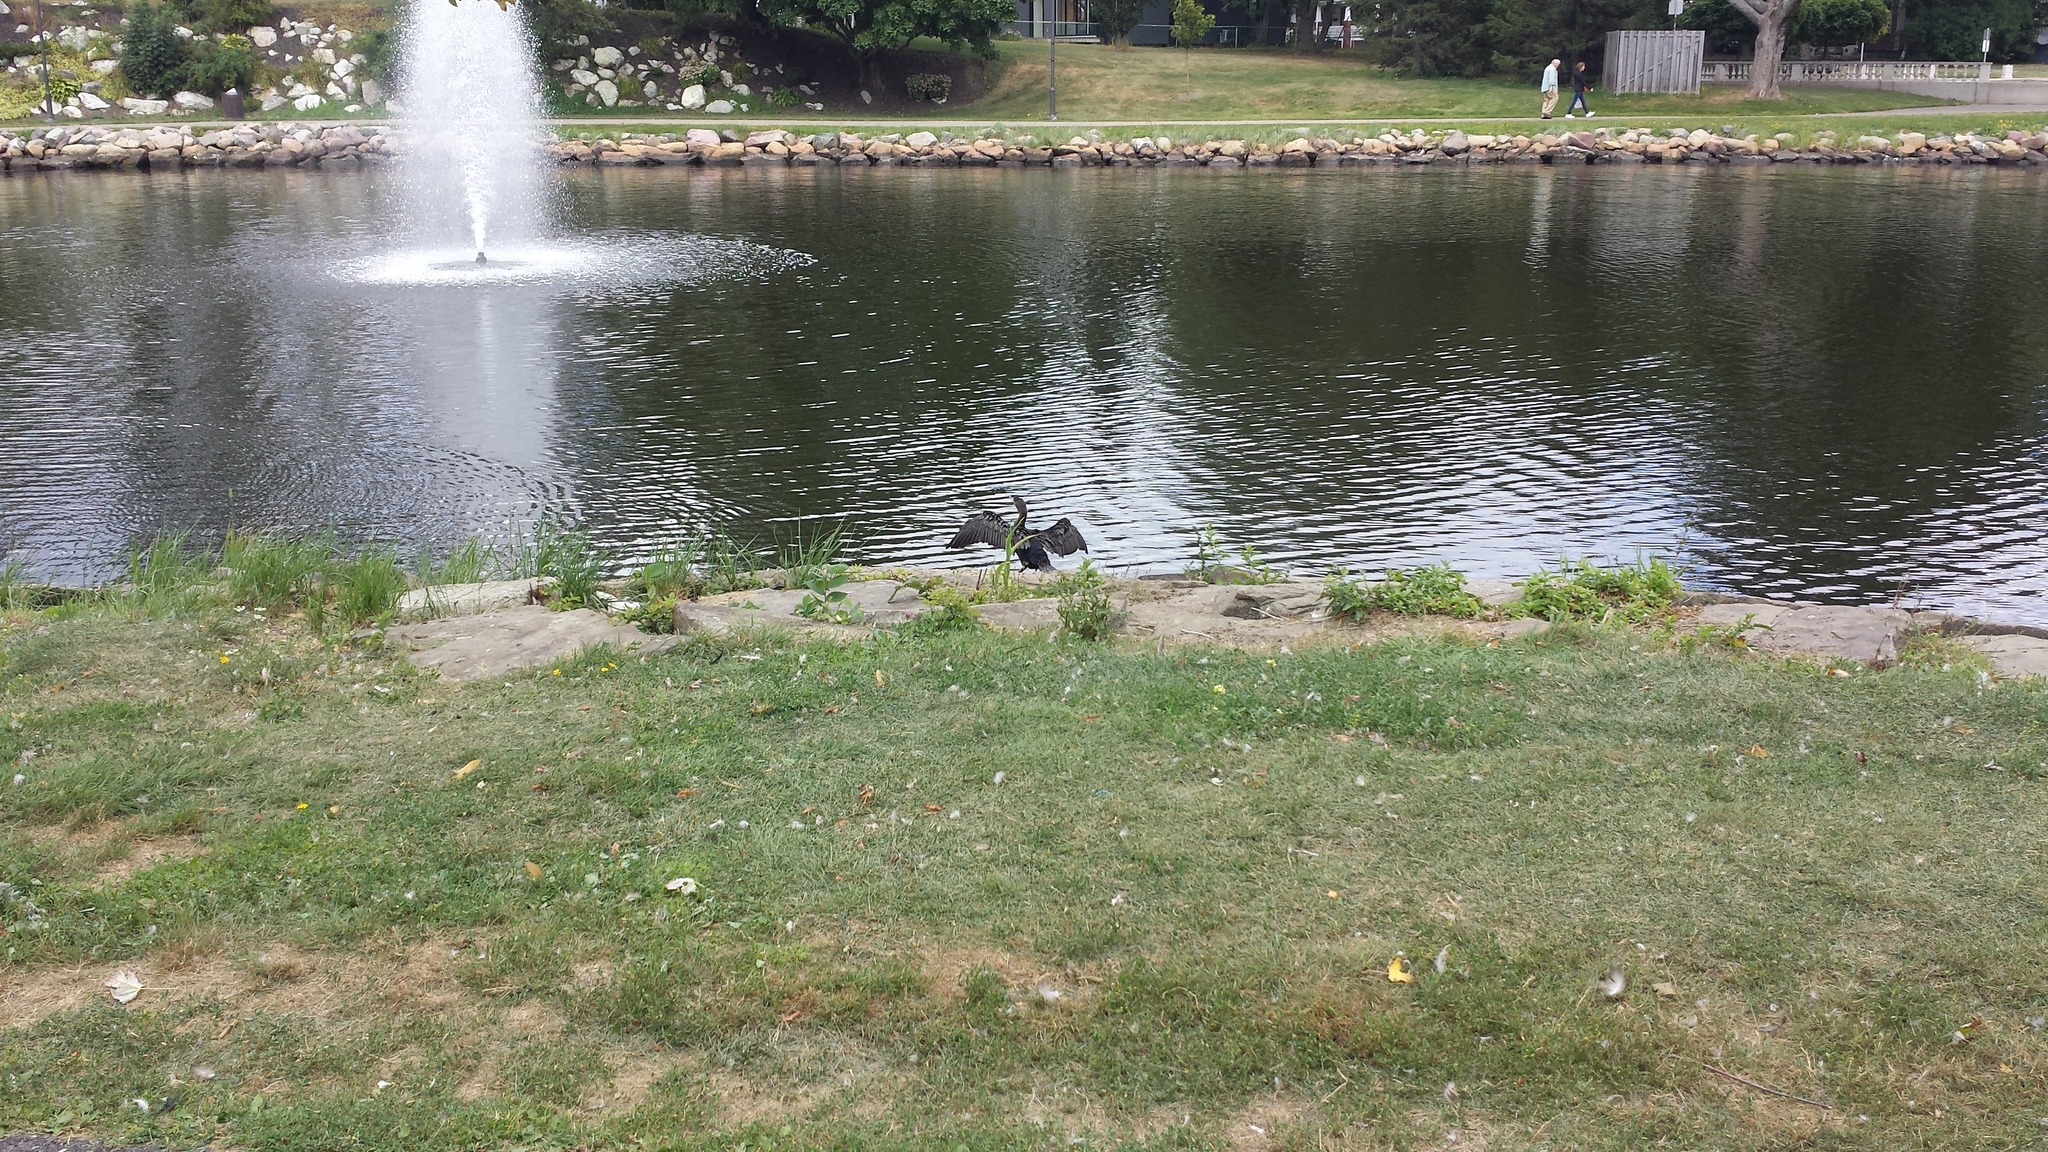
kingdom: Animalia
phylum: Chordata
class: Aves
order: Suliformes
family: Phalacrocoracidae
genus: Phalacrocorax
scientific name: Phalacrocorax auritus
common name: Double-crested cormorant
